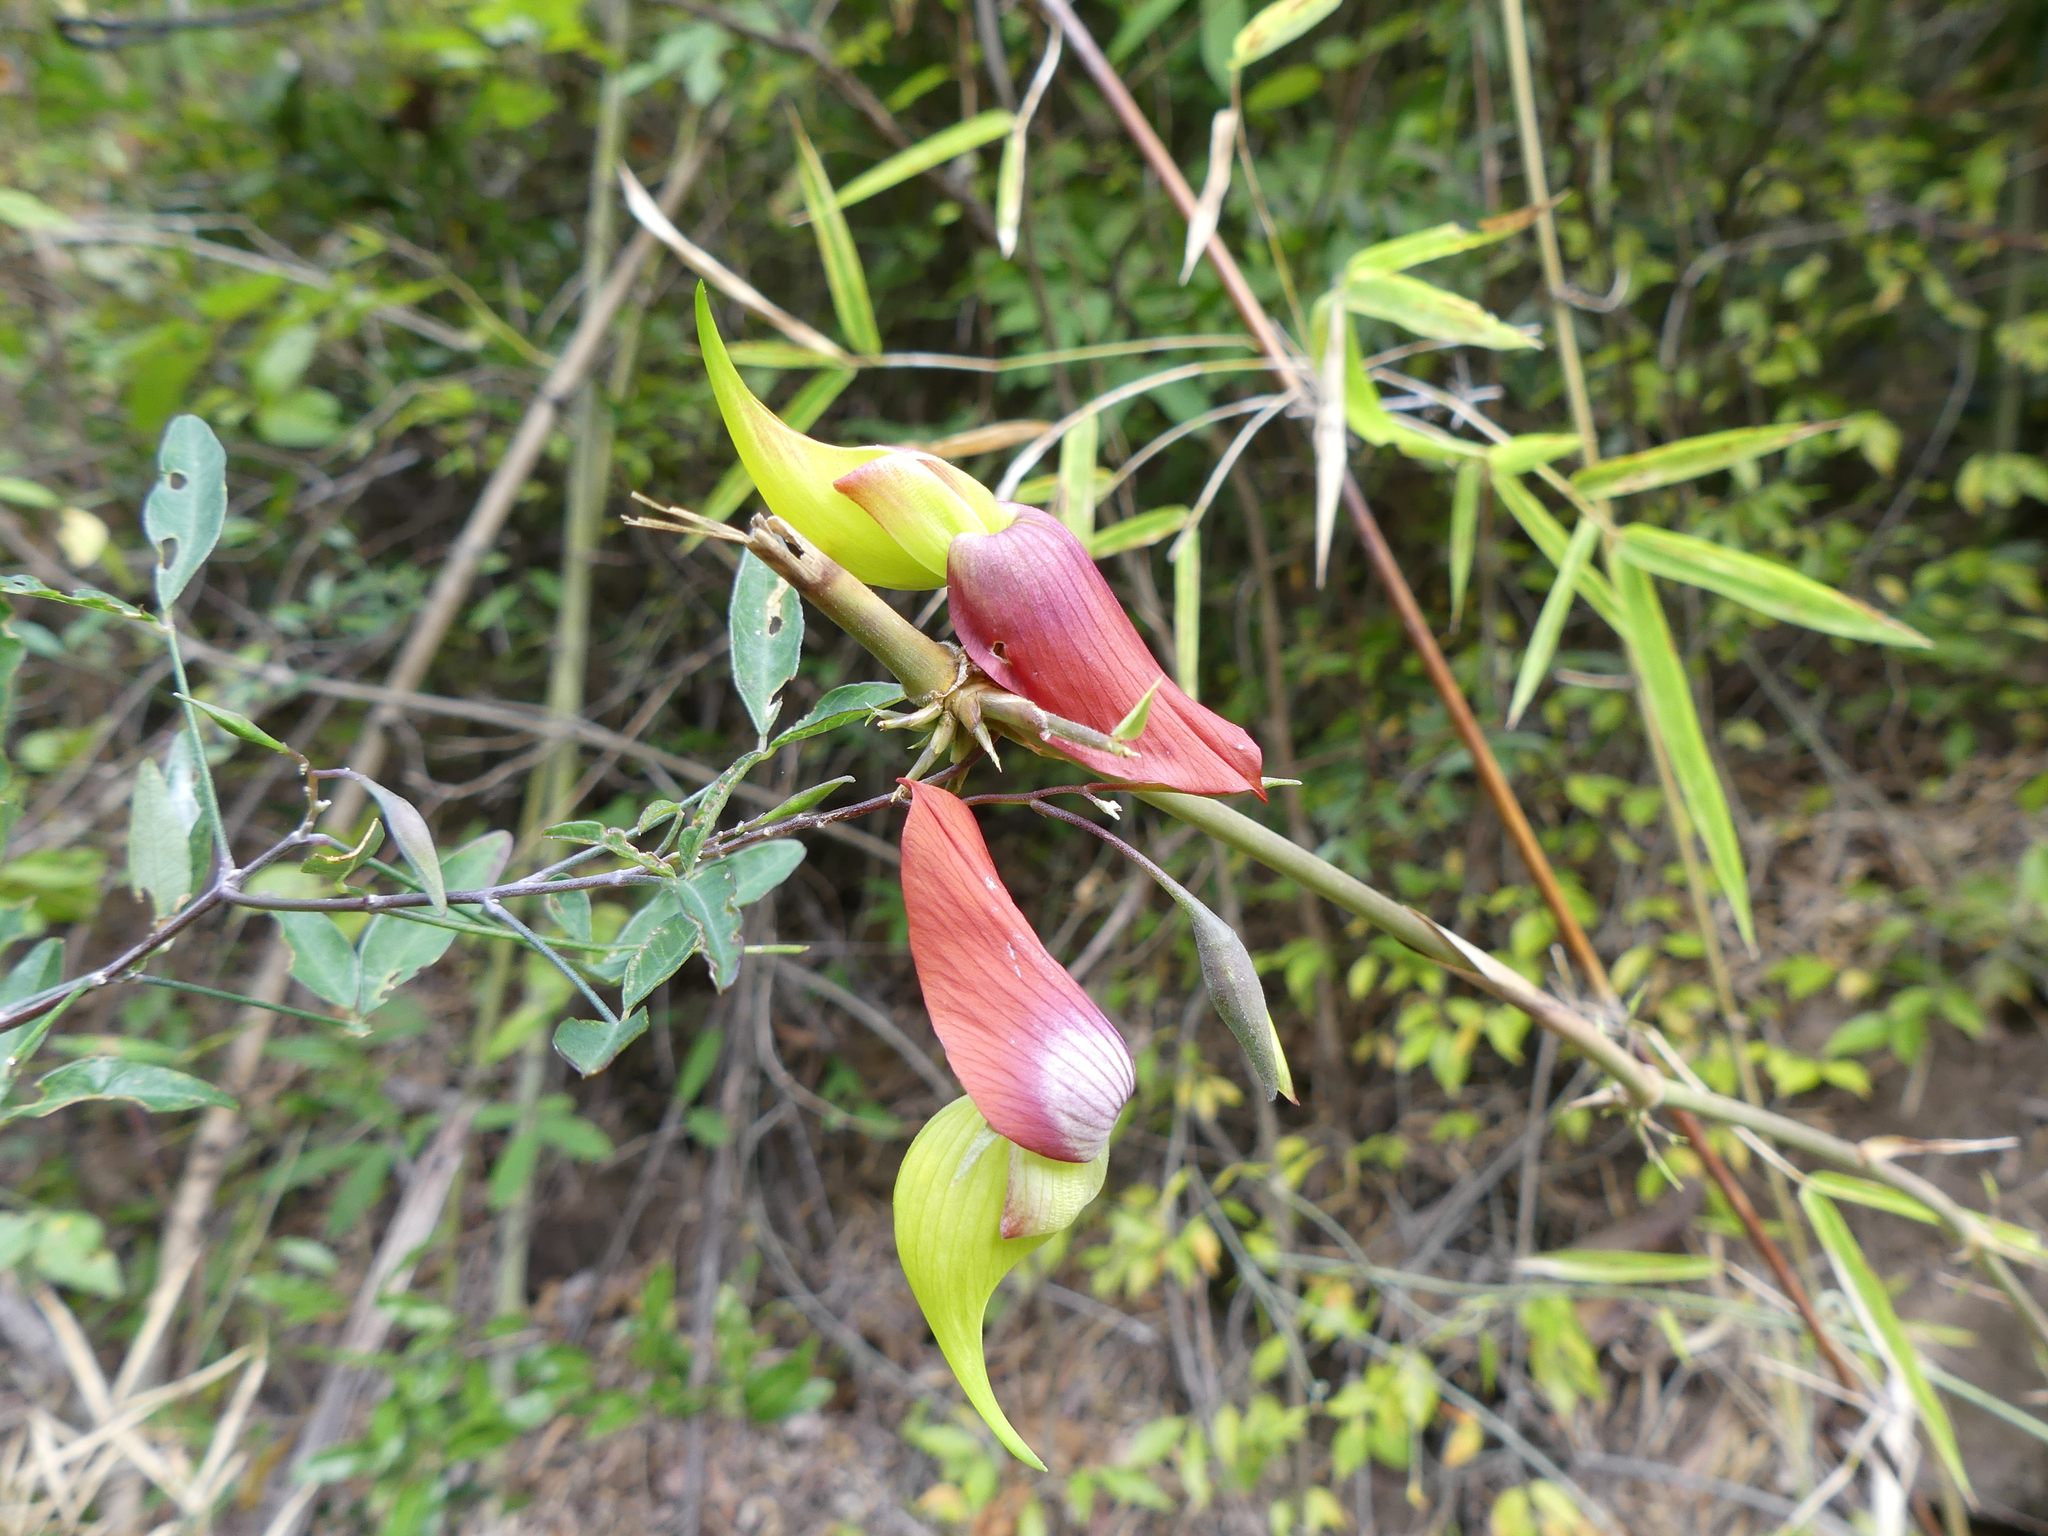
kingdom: Plantae
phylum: Tracheophyta
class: Magnoliopsida
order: Fabales
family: Fabaceae
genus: Crotalaria
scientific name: Crotalaria grevei
